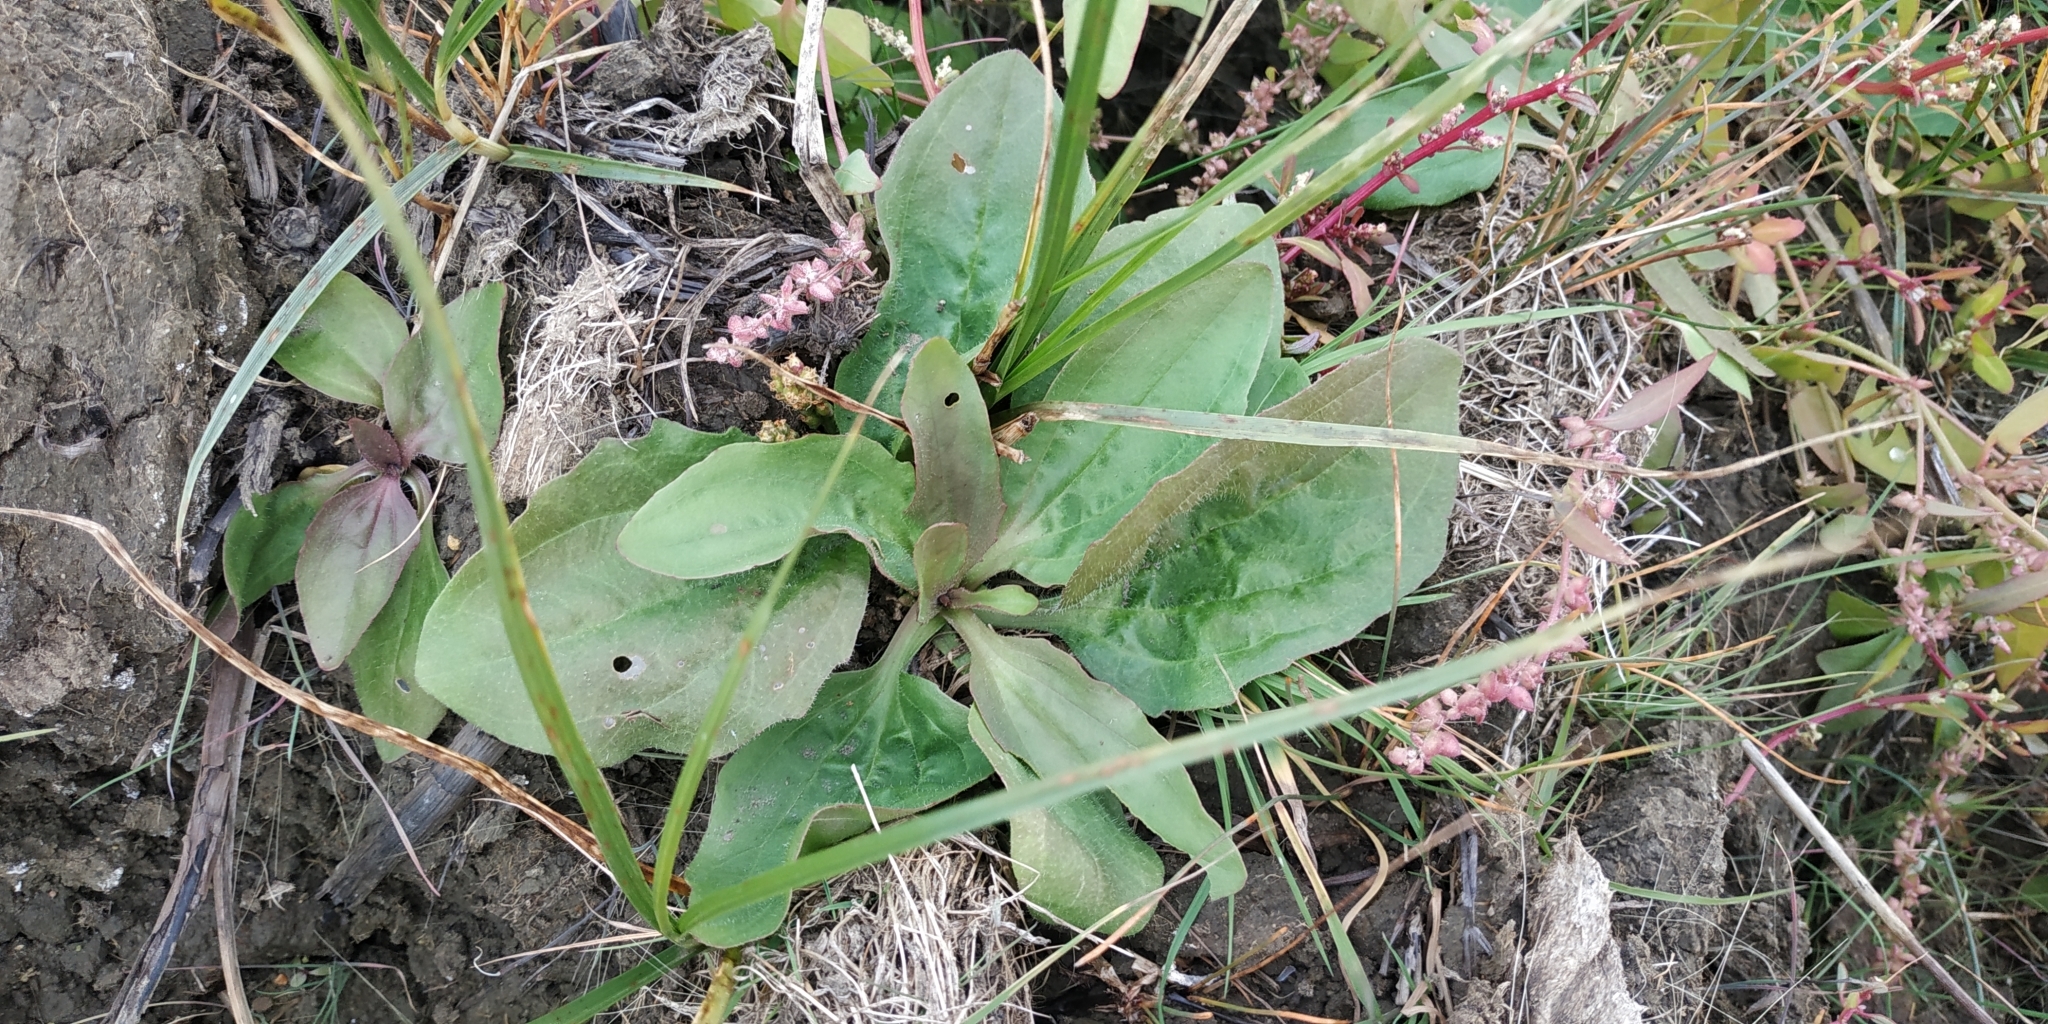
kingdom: Plantae
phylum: Tracheophyta
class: Magnoliopsida
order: Lamiales
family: Plantaginaceae
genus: Plantago
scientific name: Plantago uliginosa
